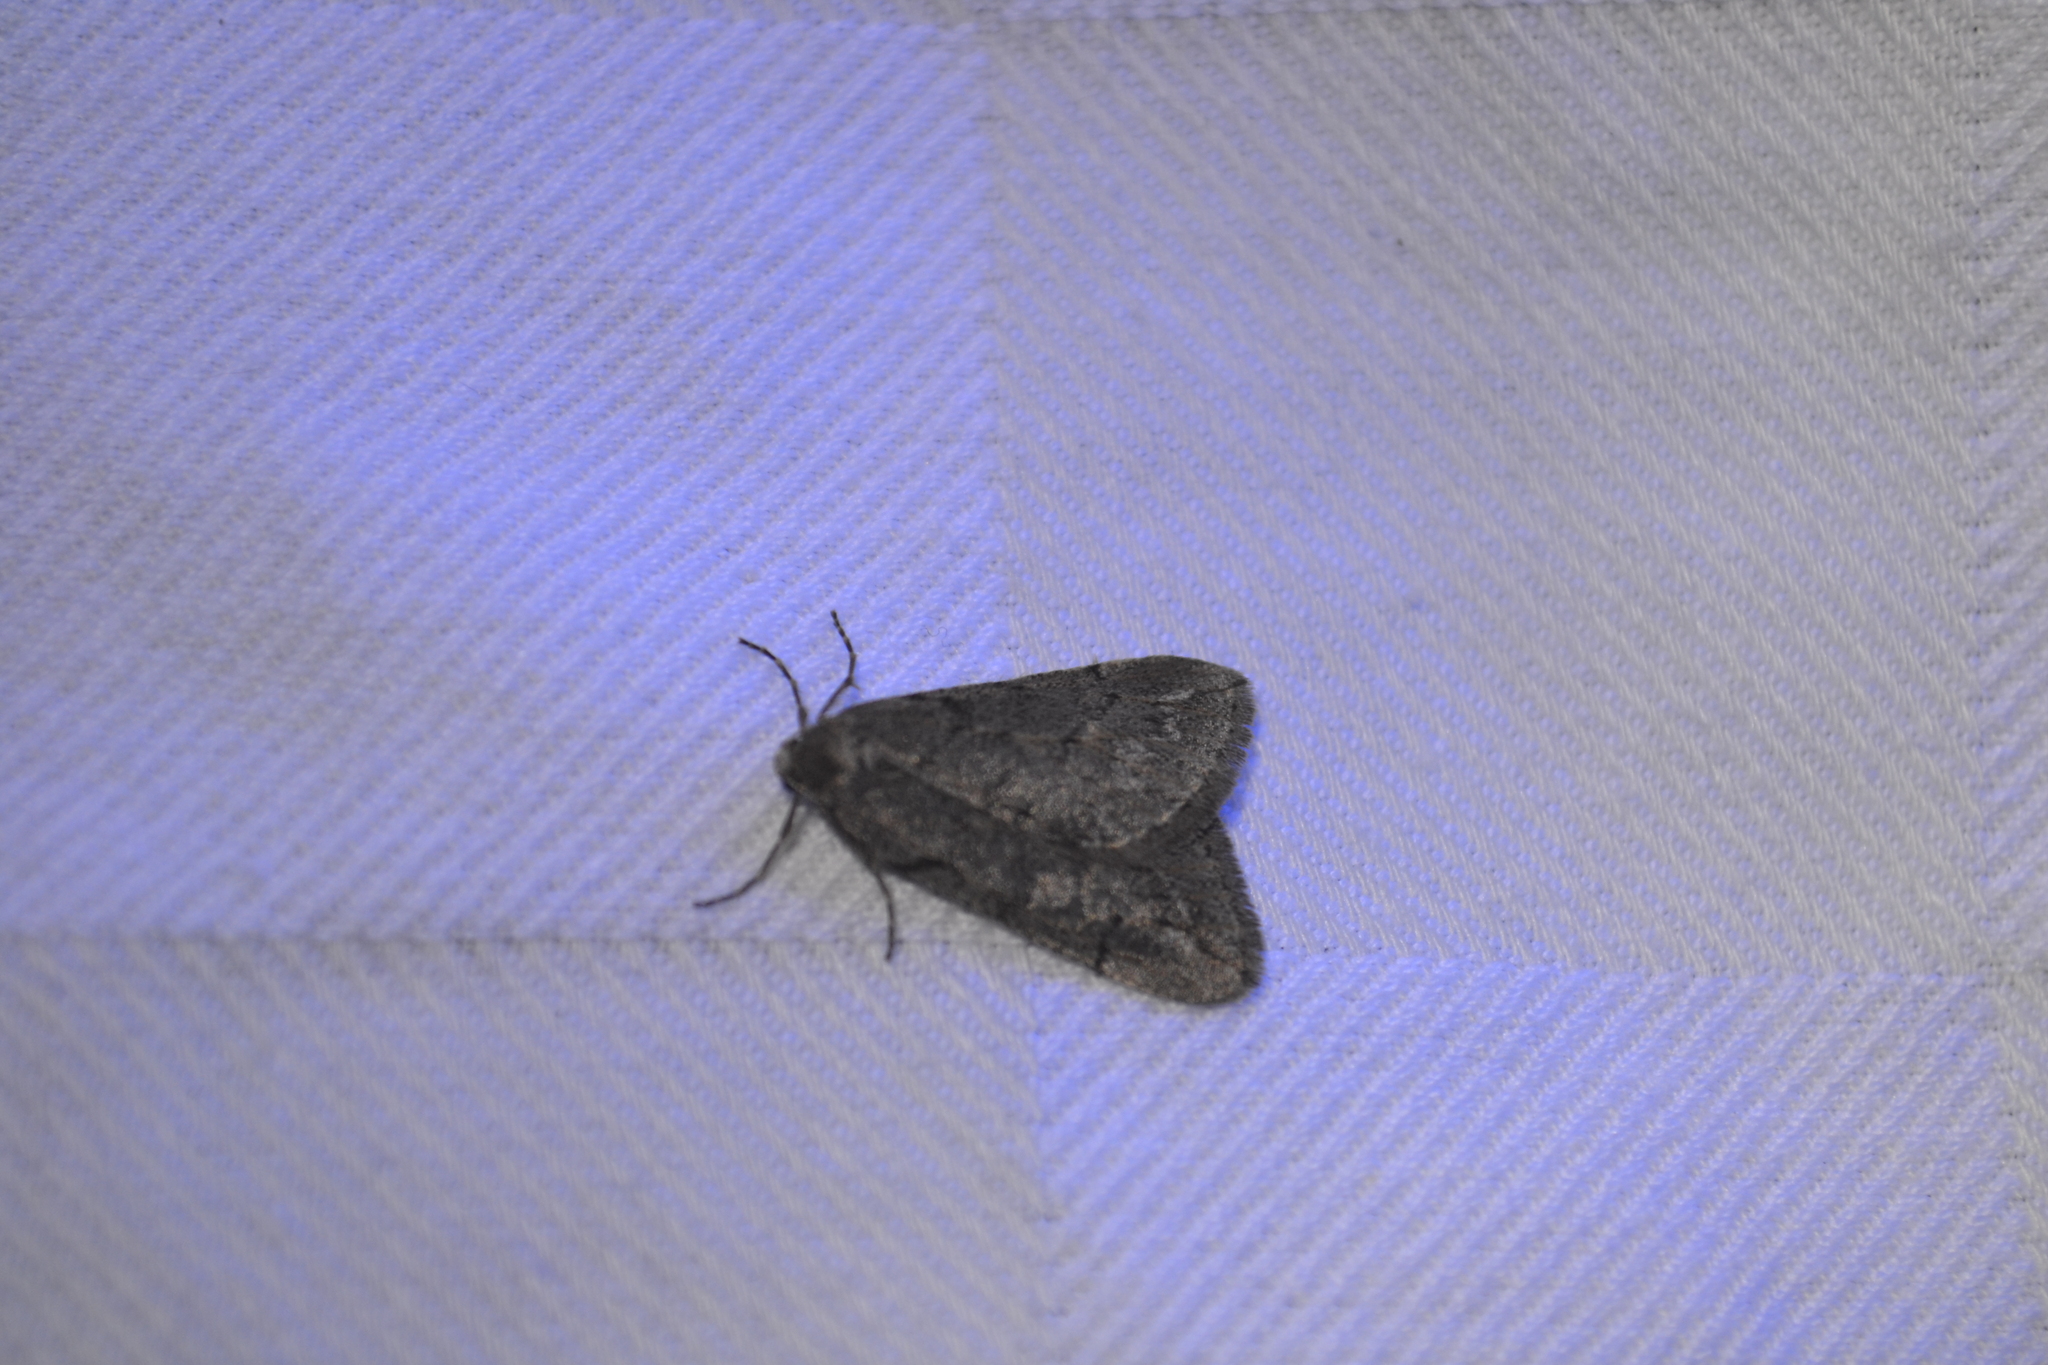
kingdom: Animalia
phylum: Arthropoda
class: Insecta
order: Lepidoptera
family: Geometridae
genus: Paleacrita
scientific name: Paleacrita vernata
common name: Spring cankerworm
